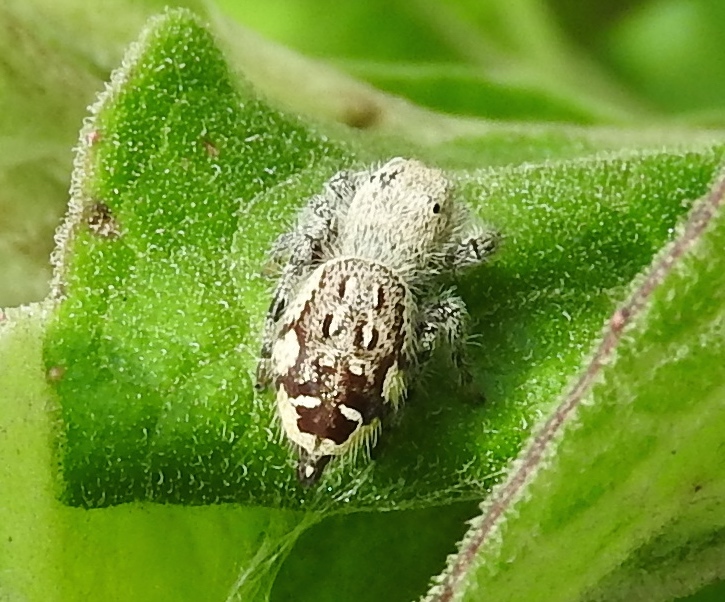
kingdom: Animalia
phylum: Arthropoda
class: Arachnida
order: Araneae
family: Salticidae
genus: Paraphidippus
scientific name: Paraphidippus fartilis
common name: Jumping spiders
